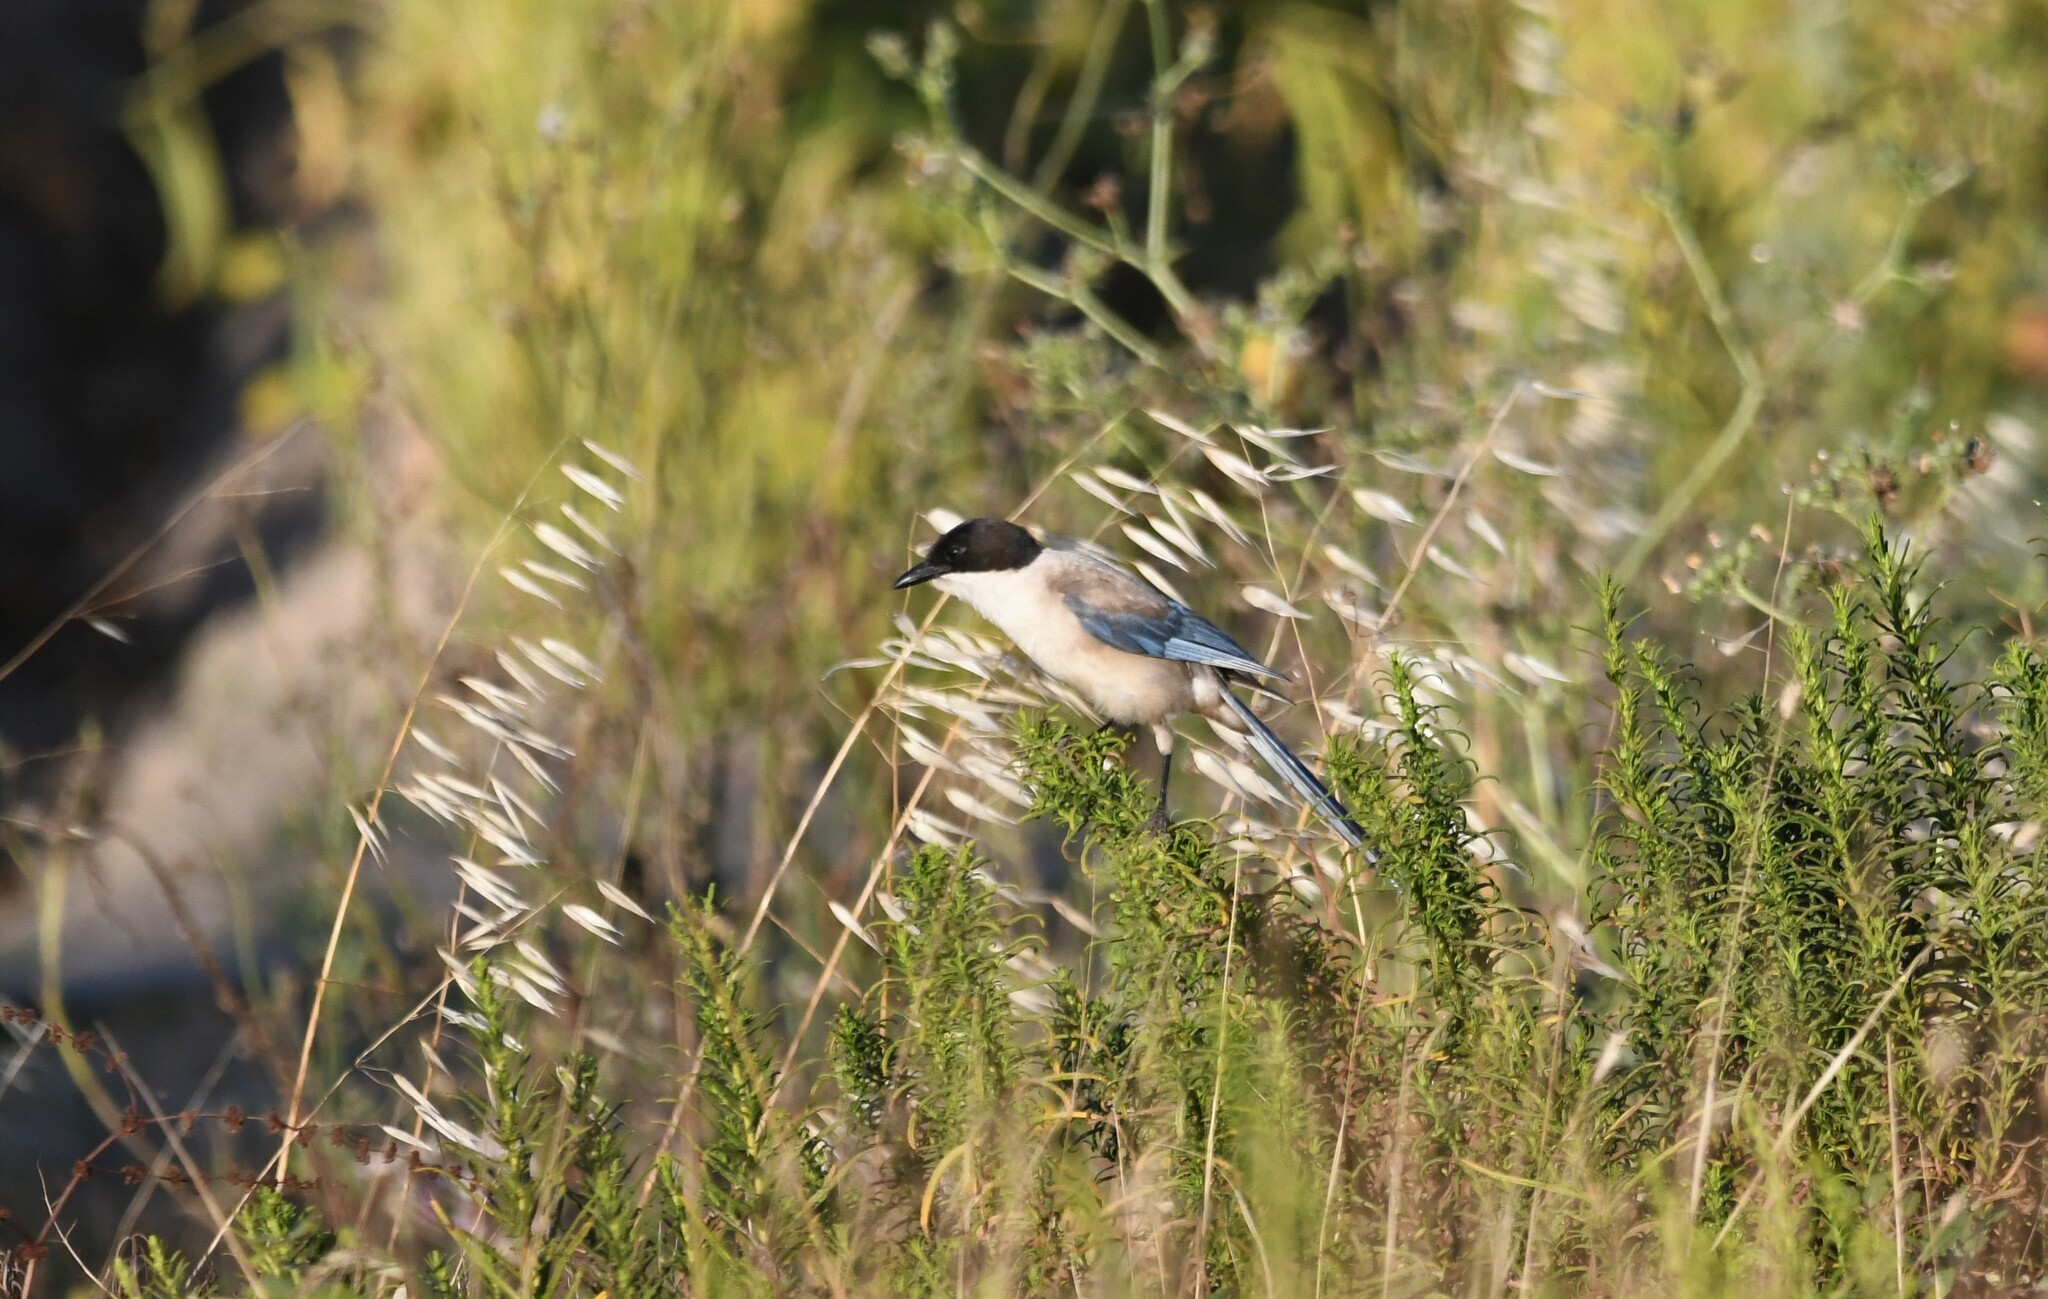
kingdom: Animalia
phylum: Chordata
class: Aves
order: Passeriformes
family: Corvidae
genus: Cyanopica
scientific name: Cyanopica cooki
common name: Iberian magpie
